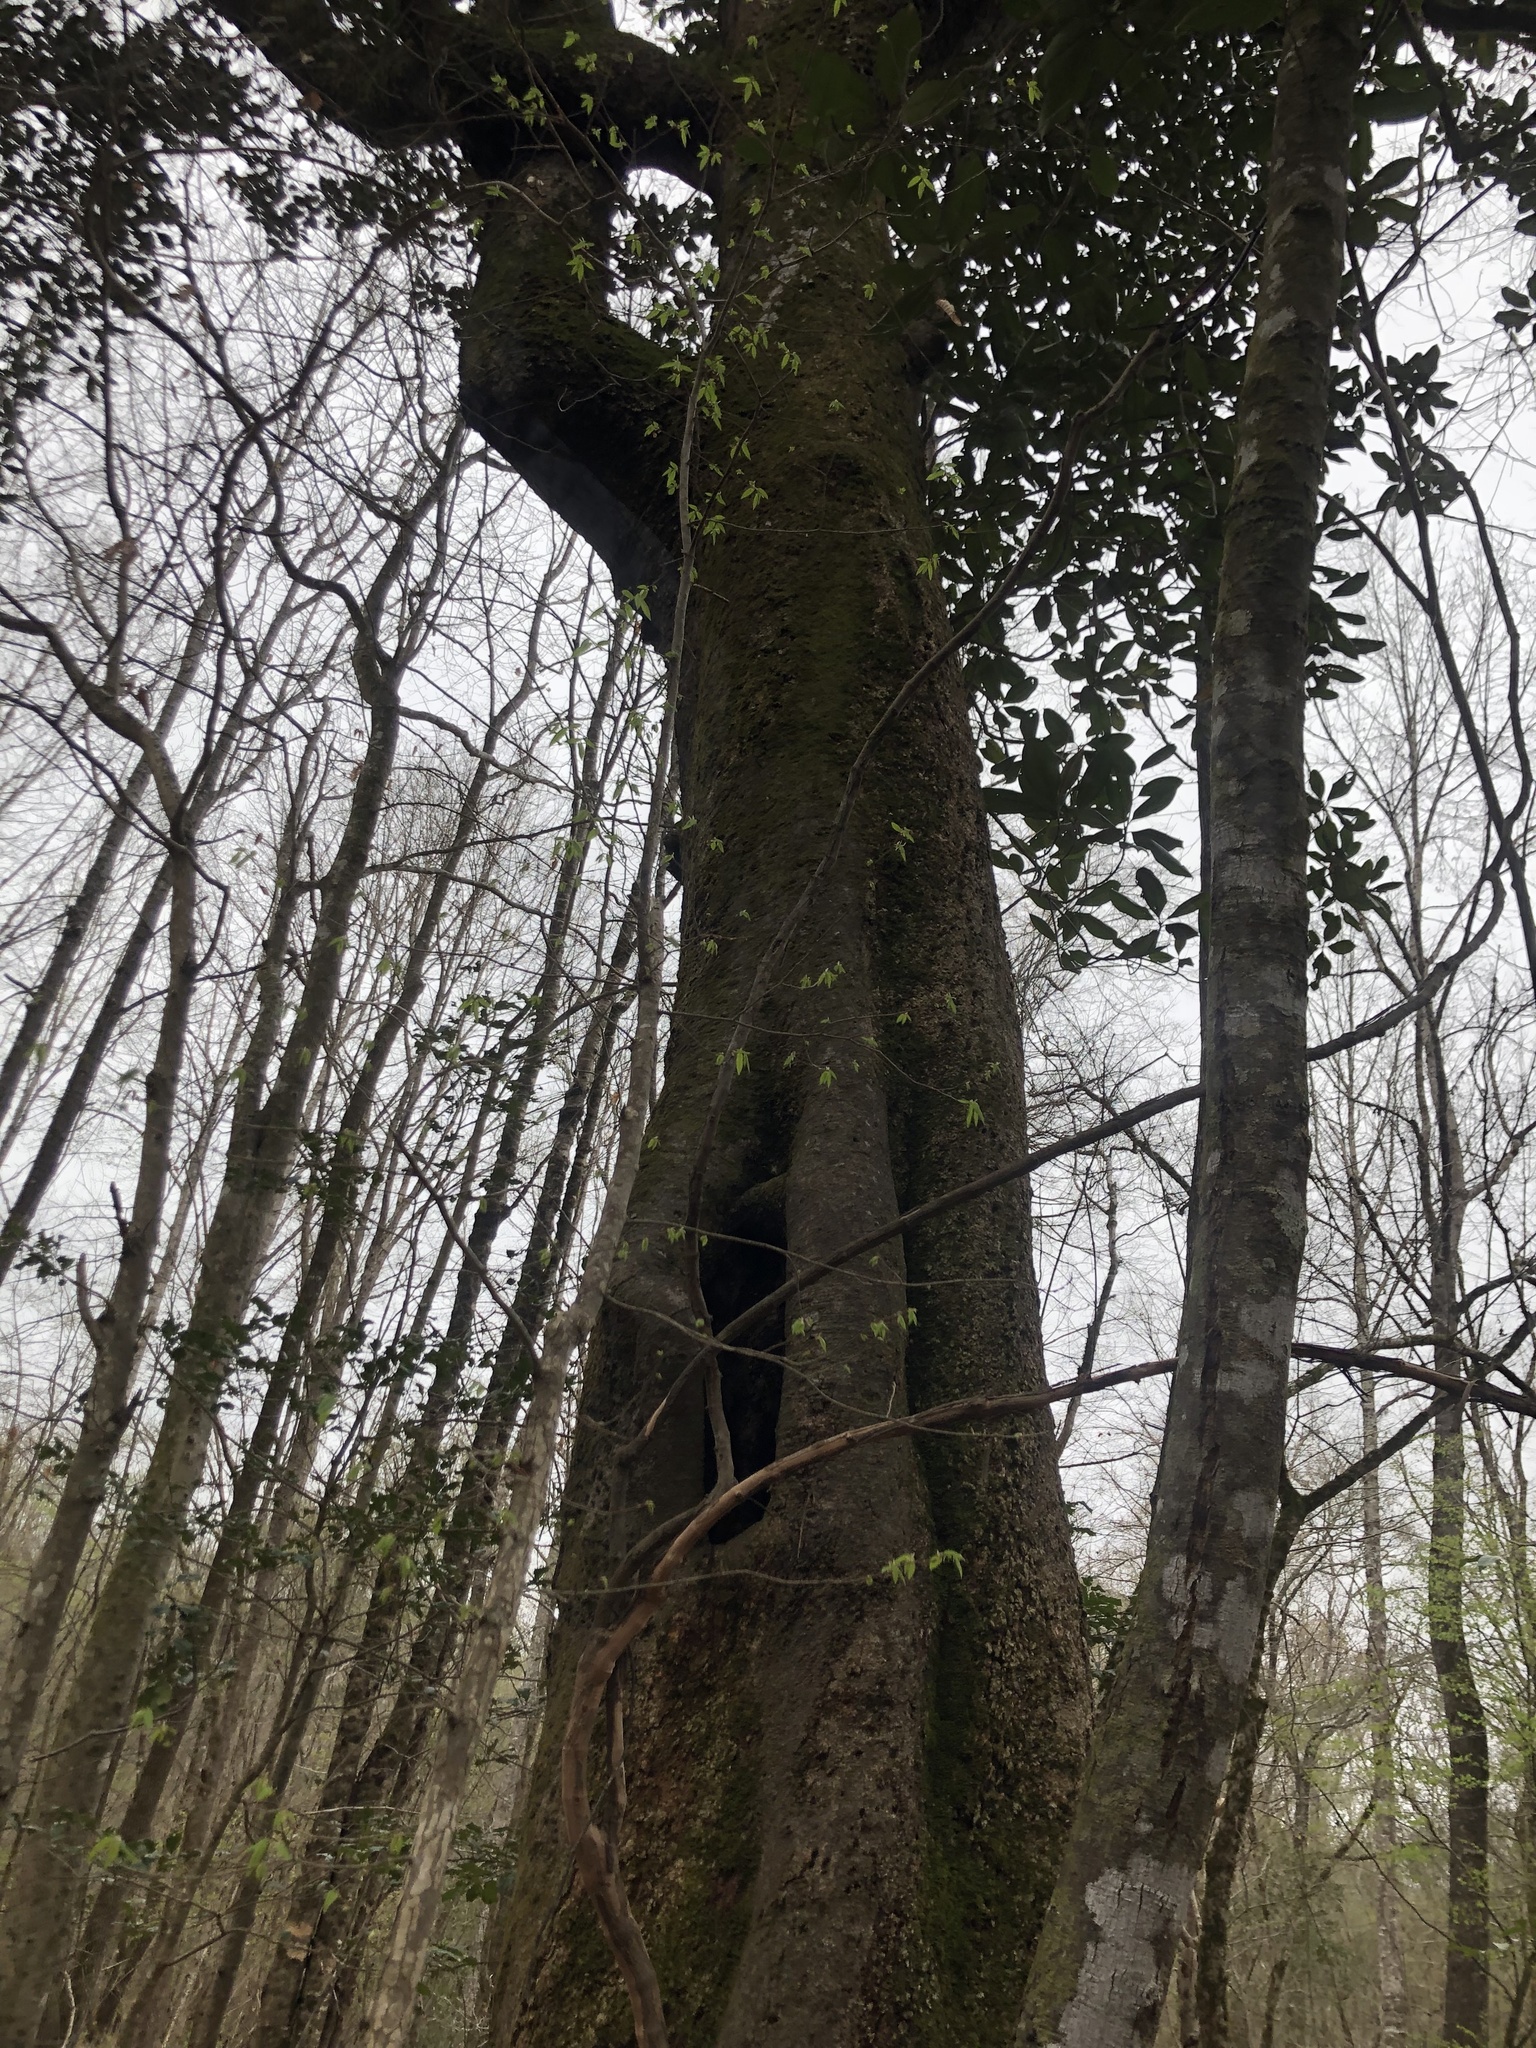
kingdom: Plantae
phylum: Tracheophyta
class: Magnoliopsida
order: Magnoliales
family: Magnoliaceae
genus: Magnolia
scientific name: Magnolia grandiflora
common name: Southern magnolia
